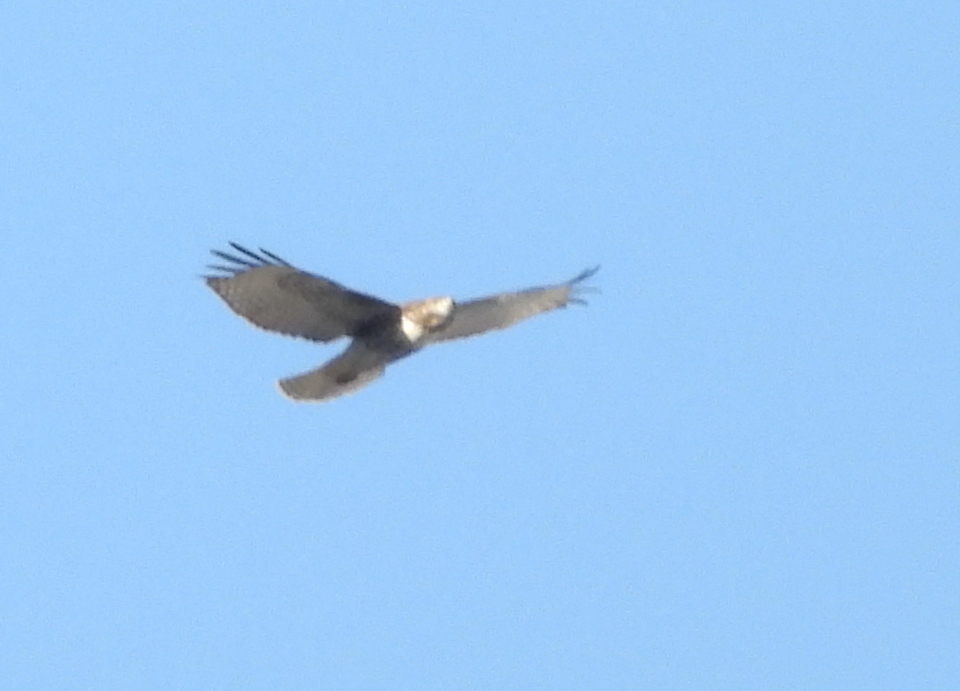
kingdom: Animalia
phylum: Chordata
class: Aves
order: Accipitriformes
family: Accipitridae
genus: Buteo
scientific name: Buteo jamaicensis
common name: Red-tailed hawk
